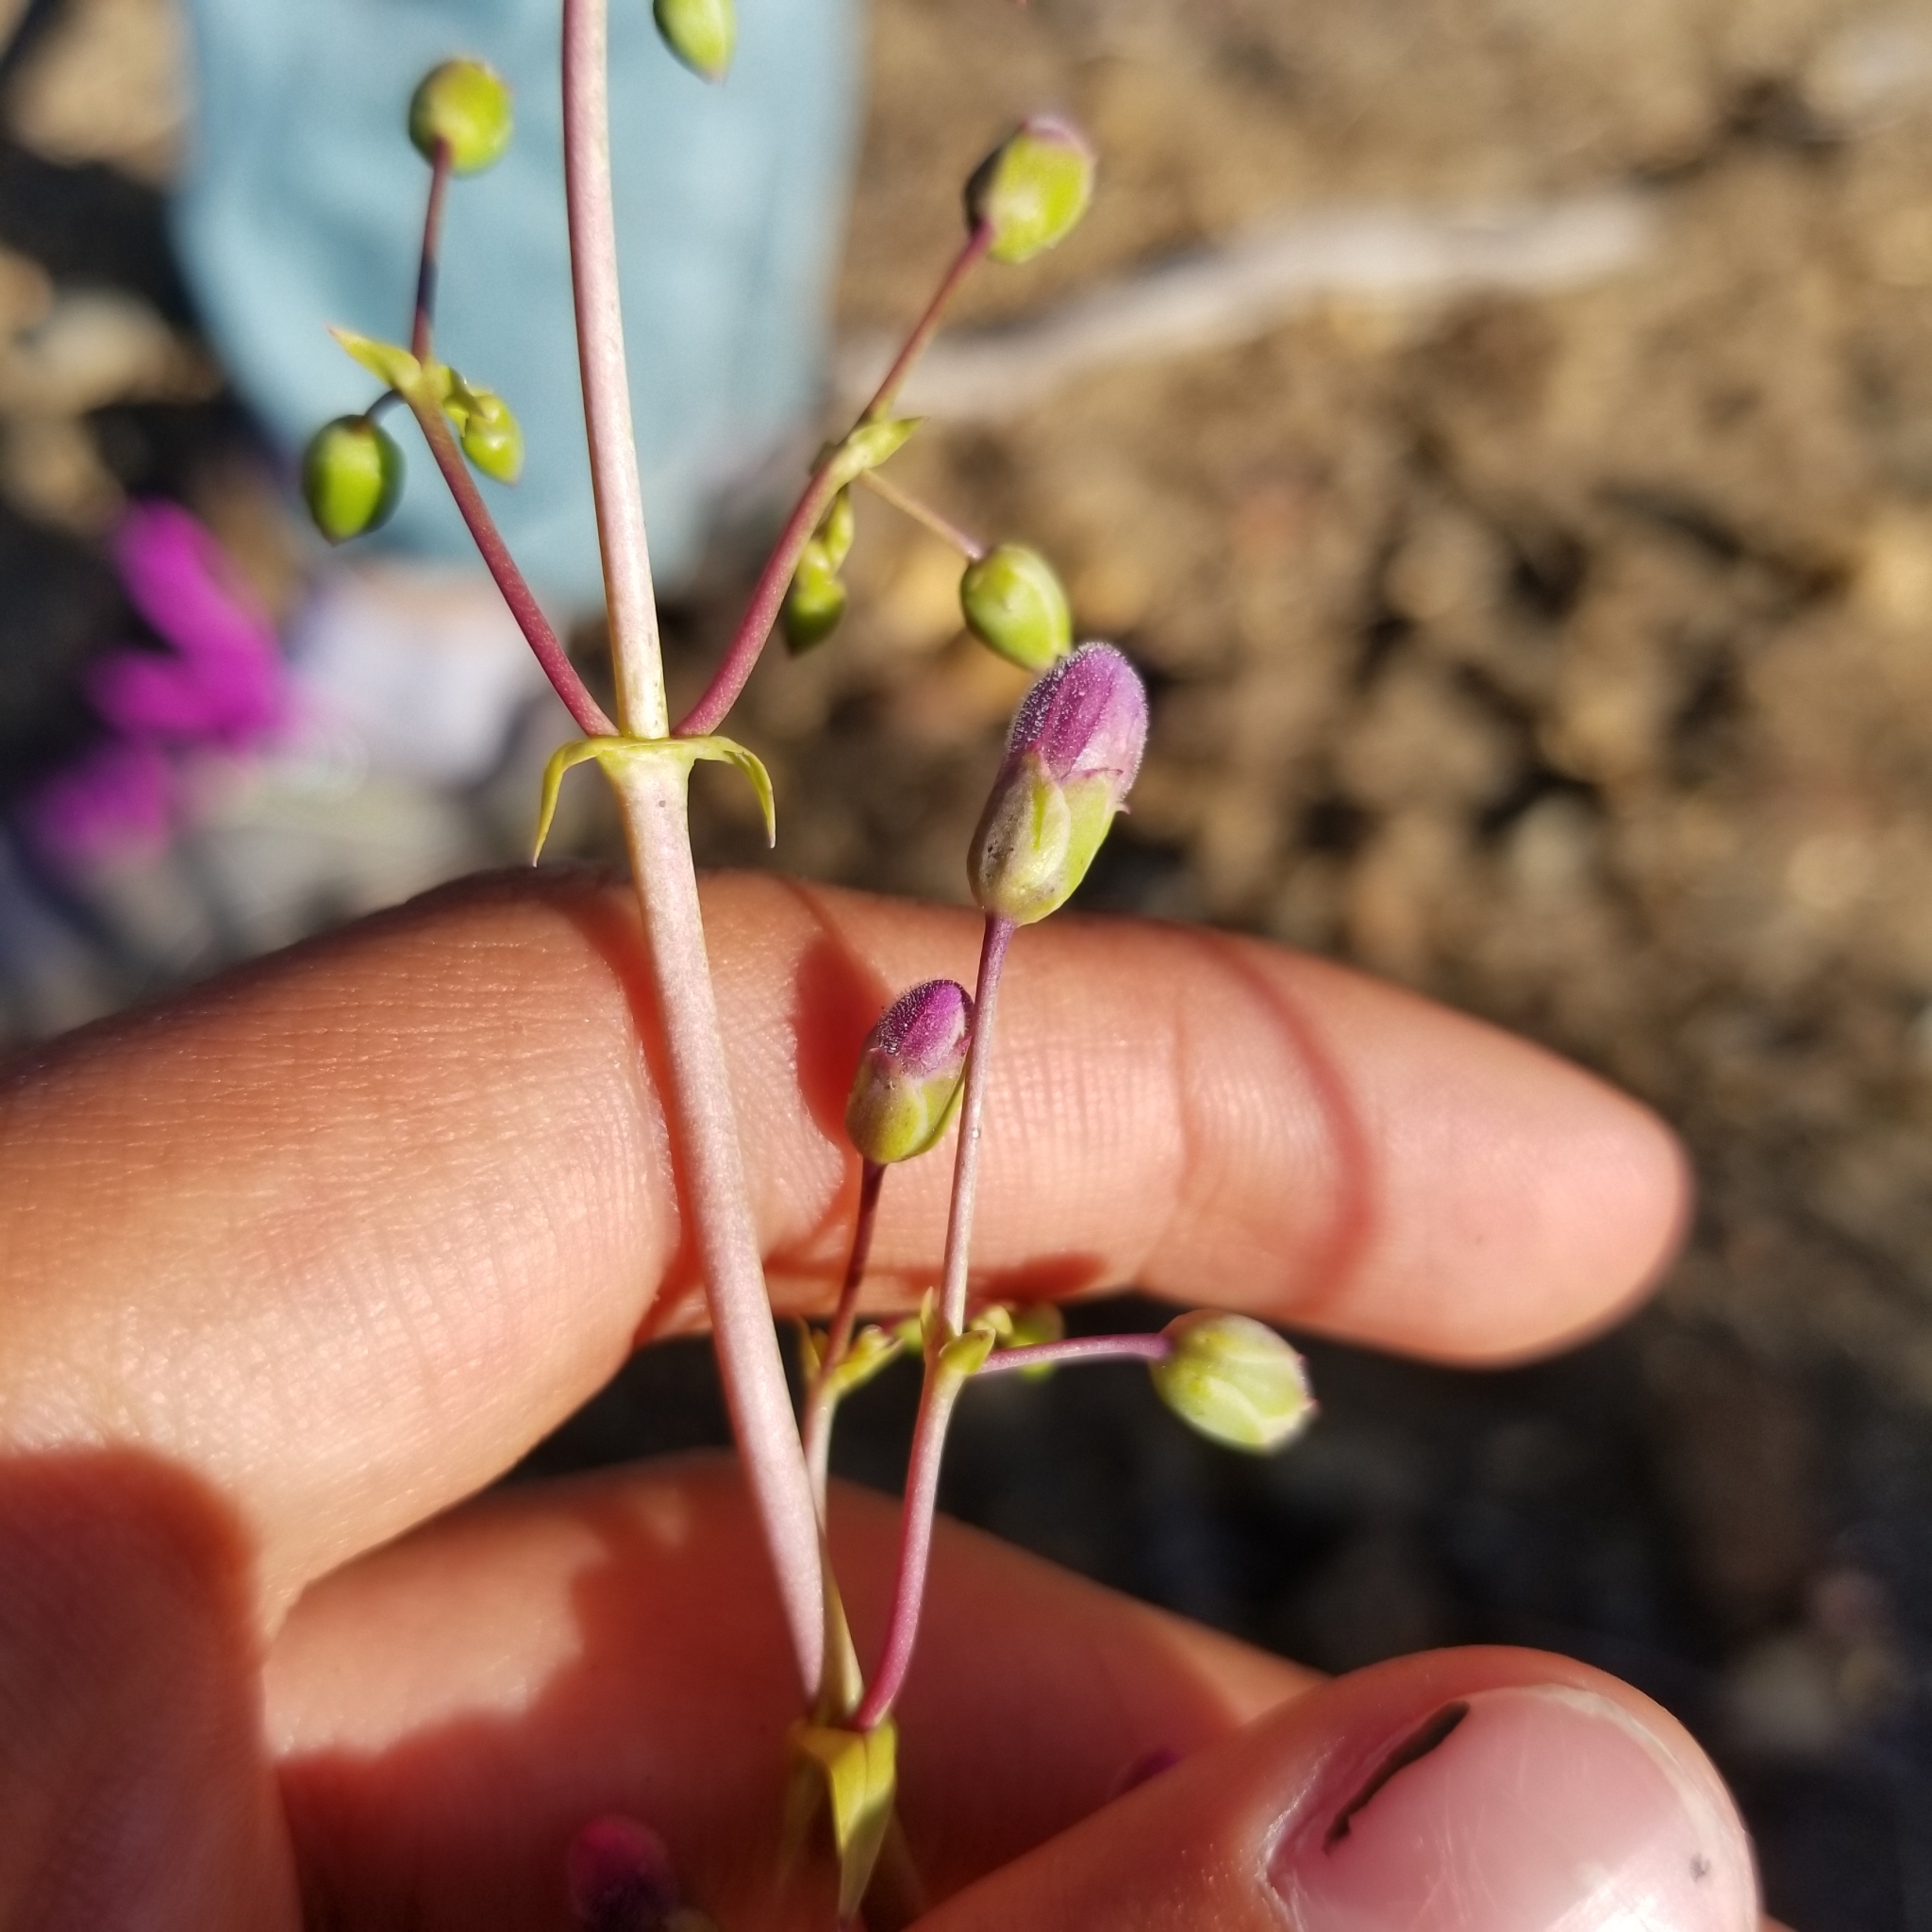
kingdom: Plantae
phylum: Tracheophyta
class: Magnoliopsida
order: Lamiales
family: Plantaginaceae
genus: Penstemon
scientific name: Penstemon spectabilis
